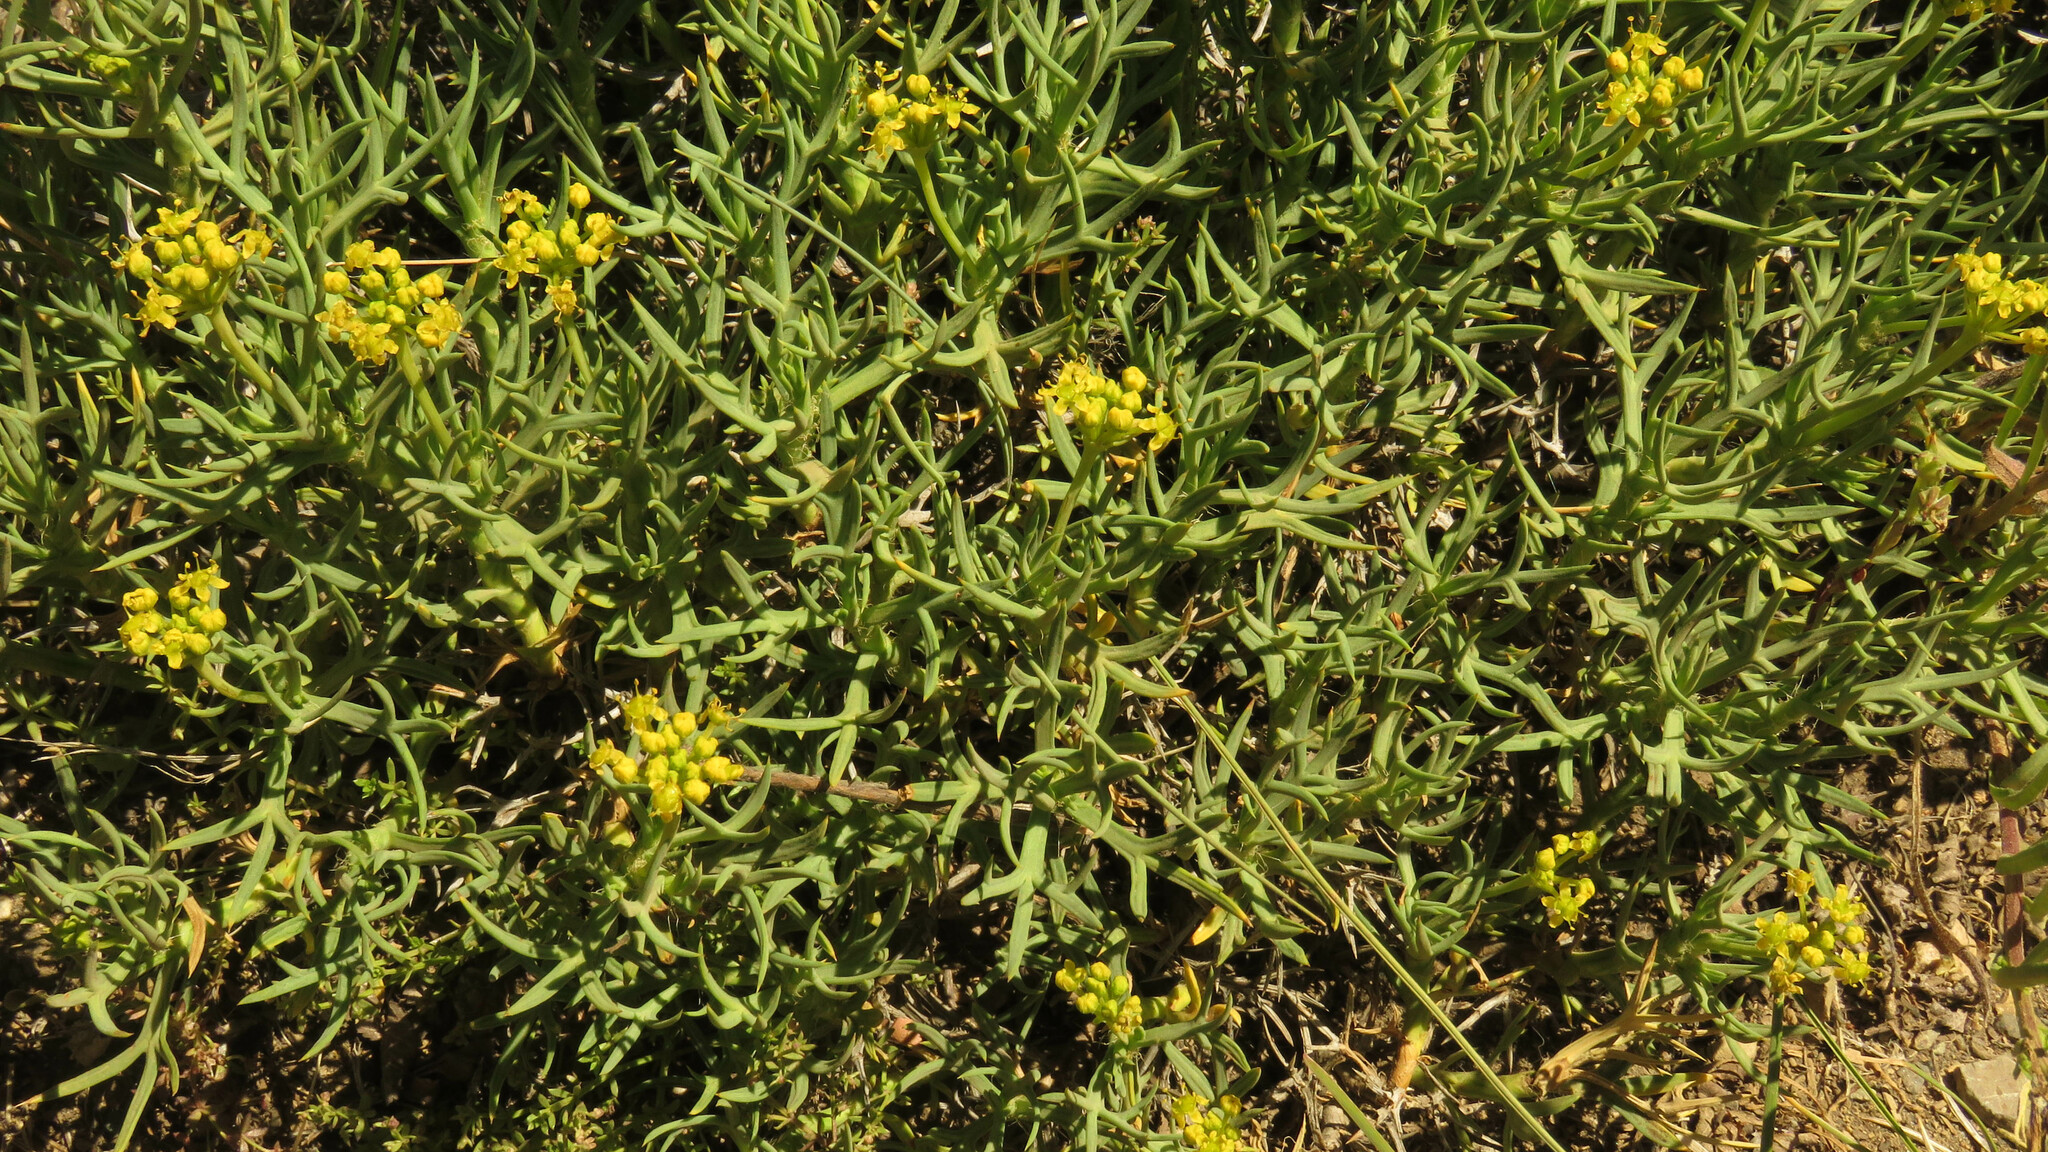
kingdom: Plantae
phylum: Tracheophyta
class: Magnoliopsida
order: Apiales
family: Apiaceae
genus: Azorella
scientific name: Azorella prolifera
